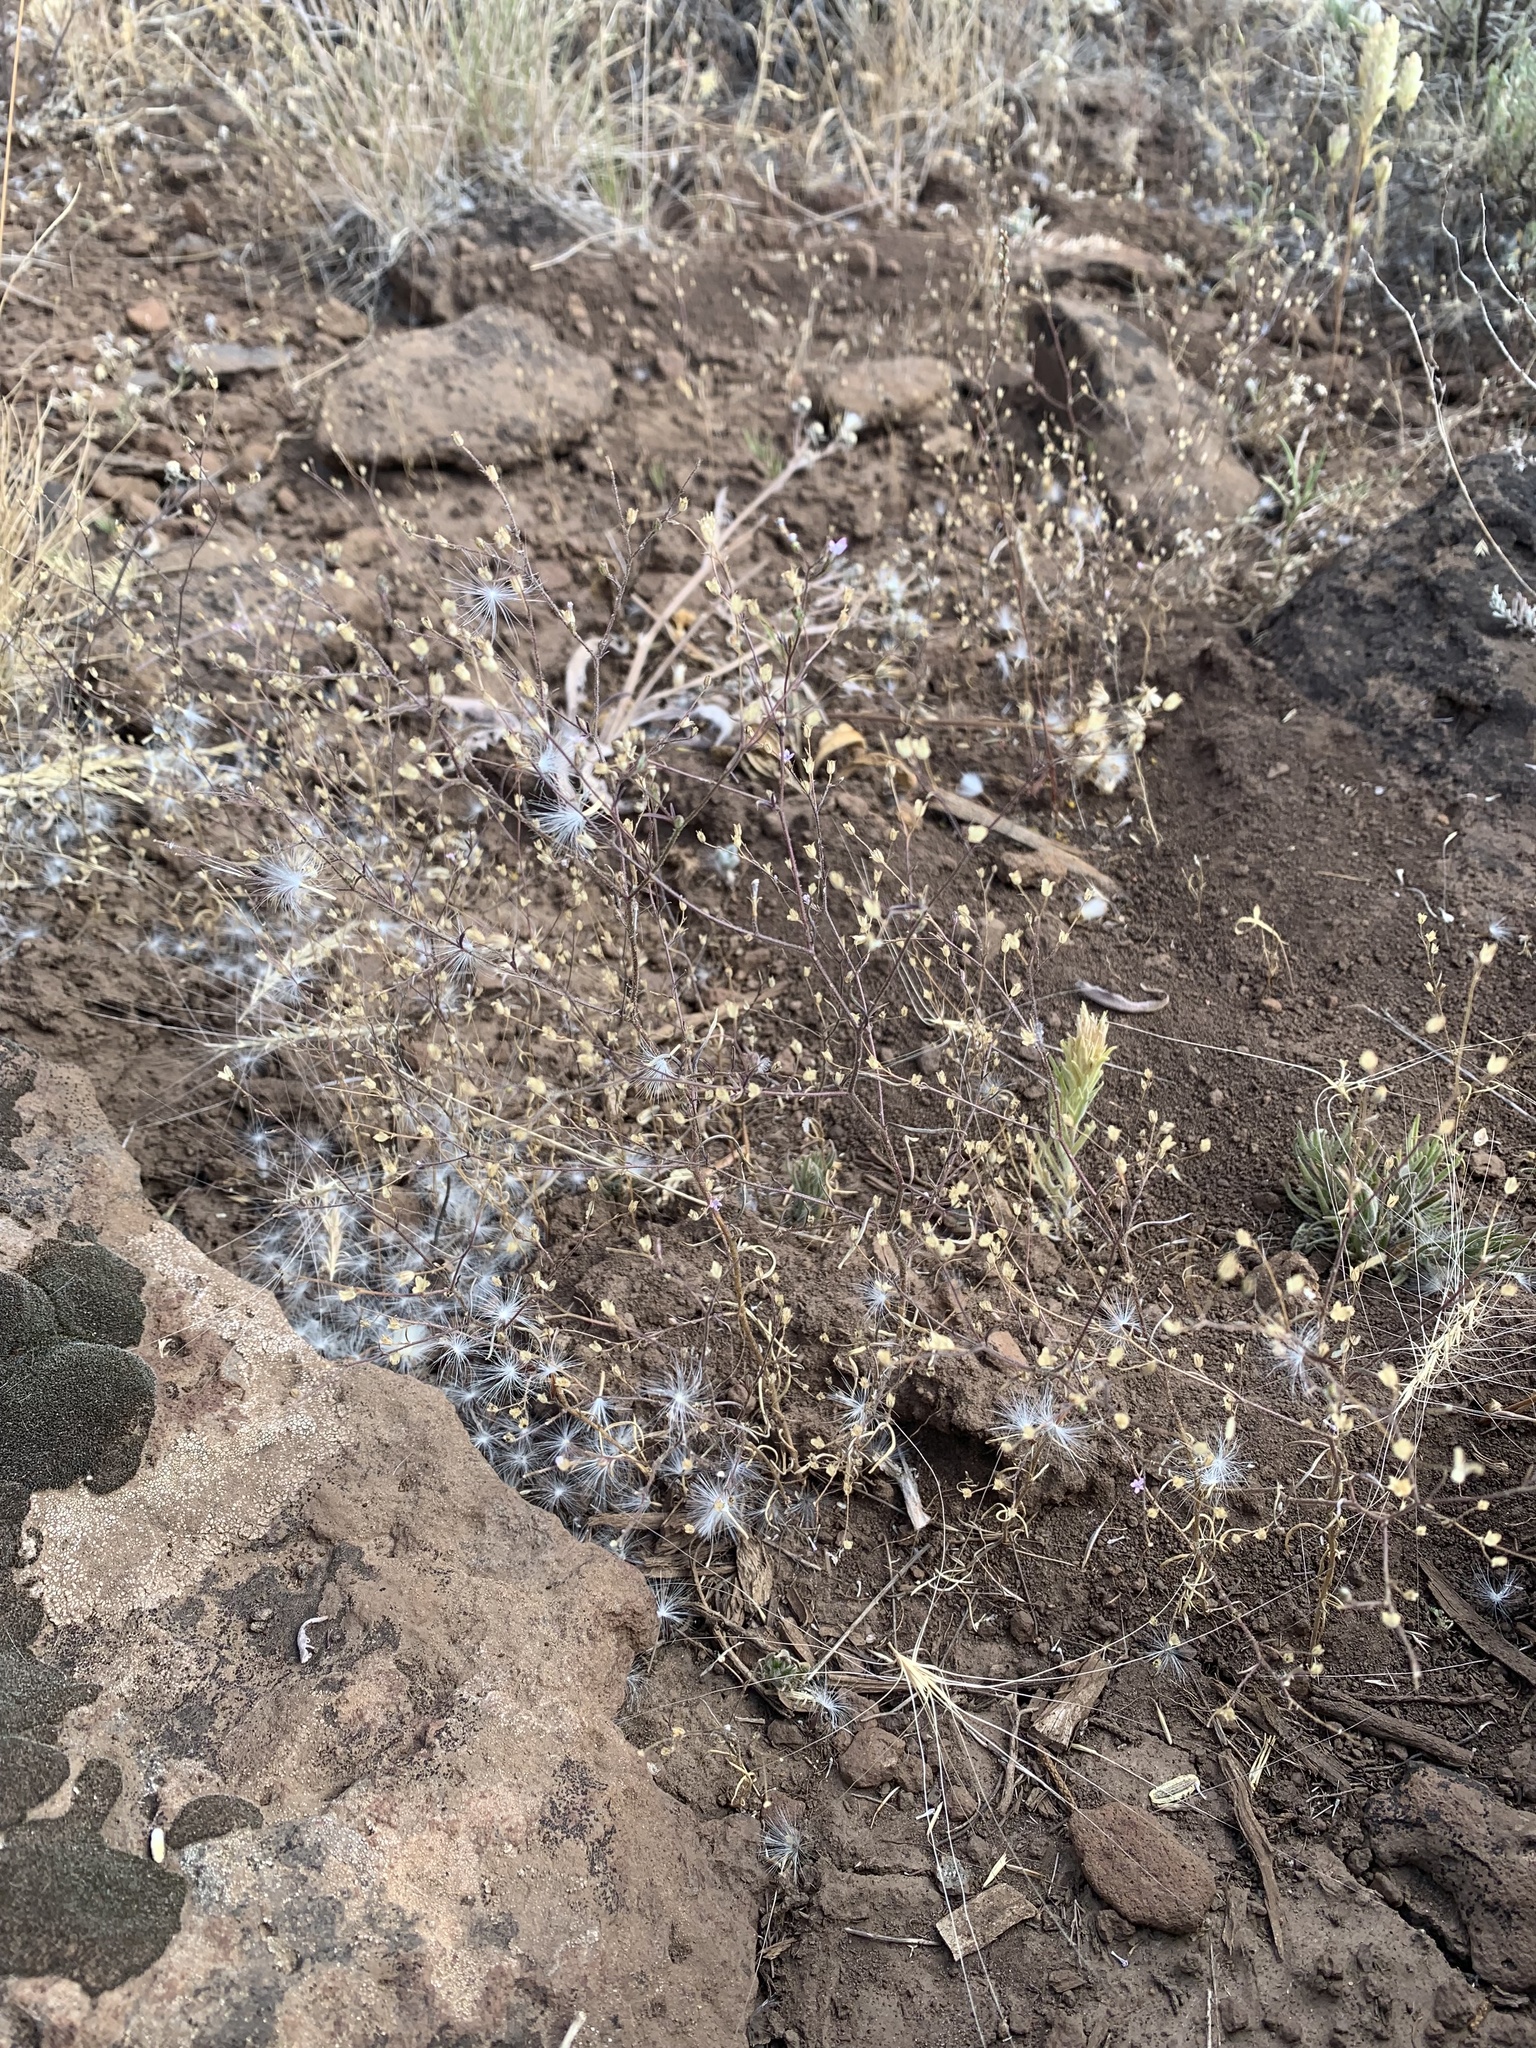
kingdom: Plantae
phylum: Tracheophyta
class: Magnoliopsida
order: Ericales
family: Polemoniaceae
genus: Navarretia
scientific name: Navarretia sinistra
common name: Alva day's pincushionplant
